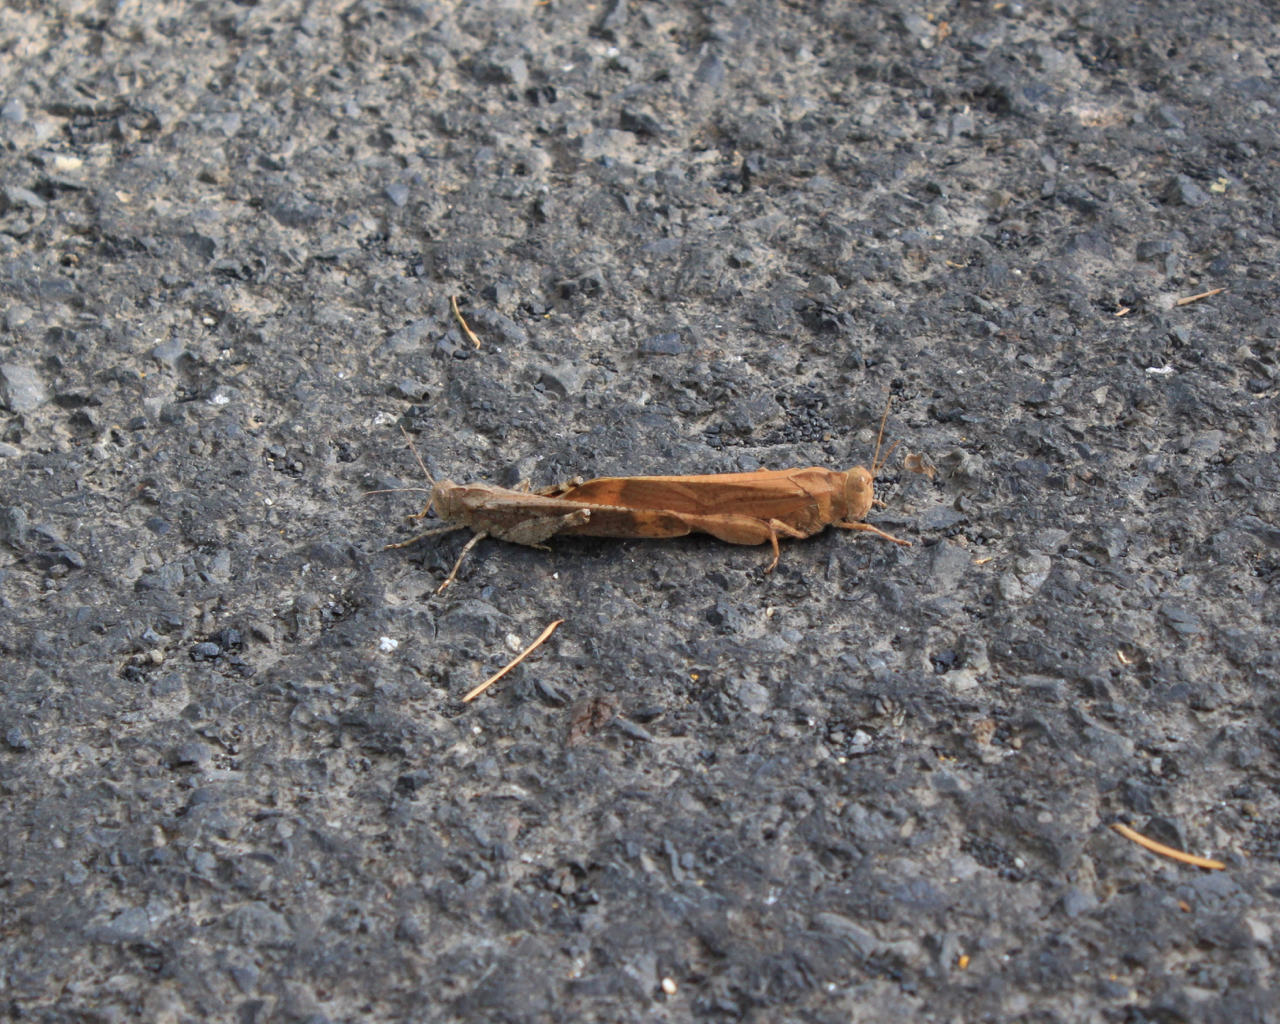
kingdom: Animalia
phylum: Arthropoda
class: Insecta
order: Orthoptera
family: Acrididae
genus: Dissosteira
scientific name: Dissosteira carolina
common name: Carolina grasshopper
